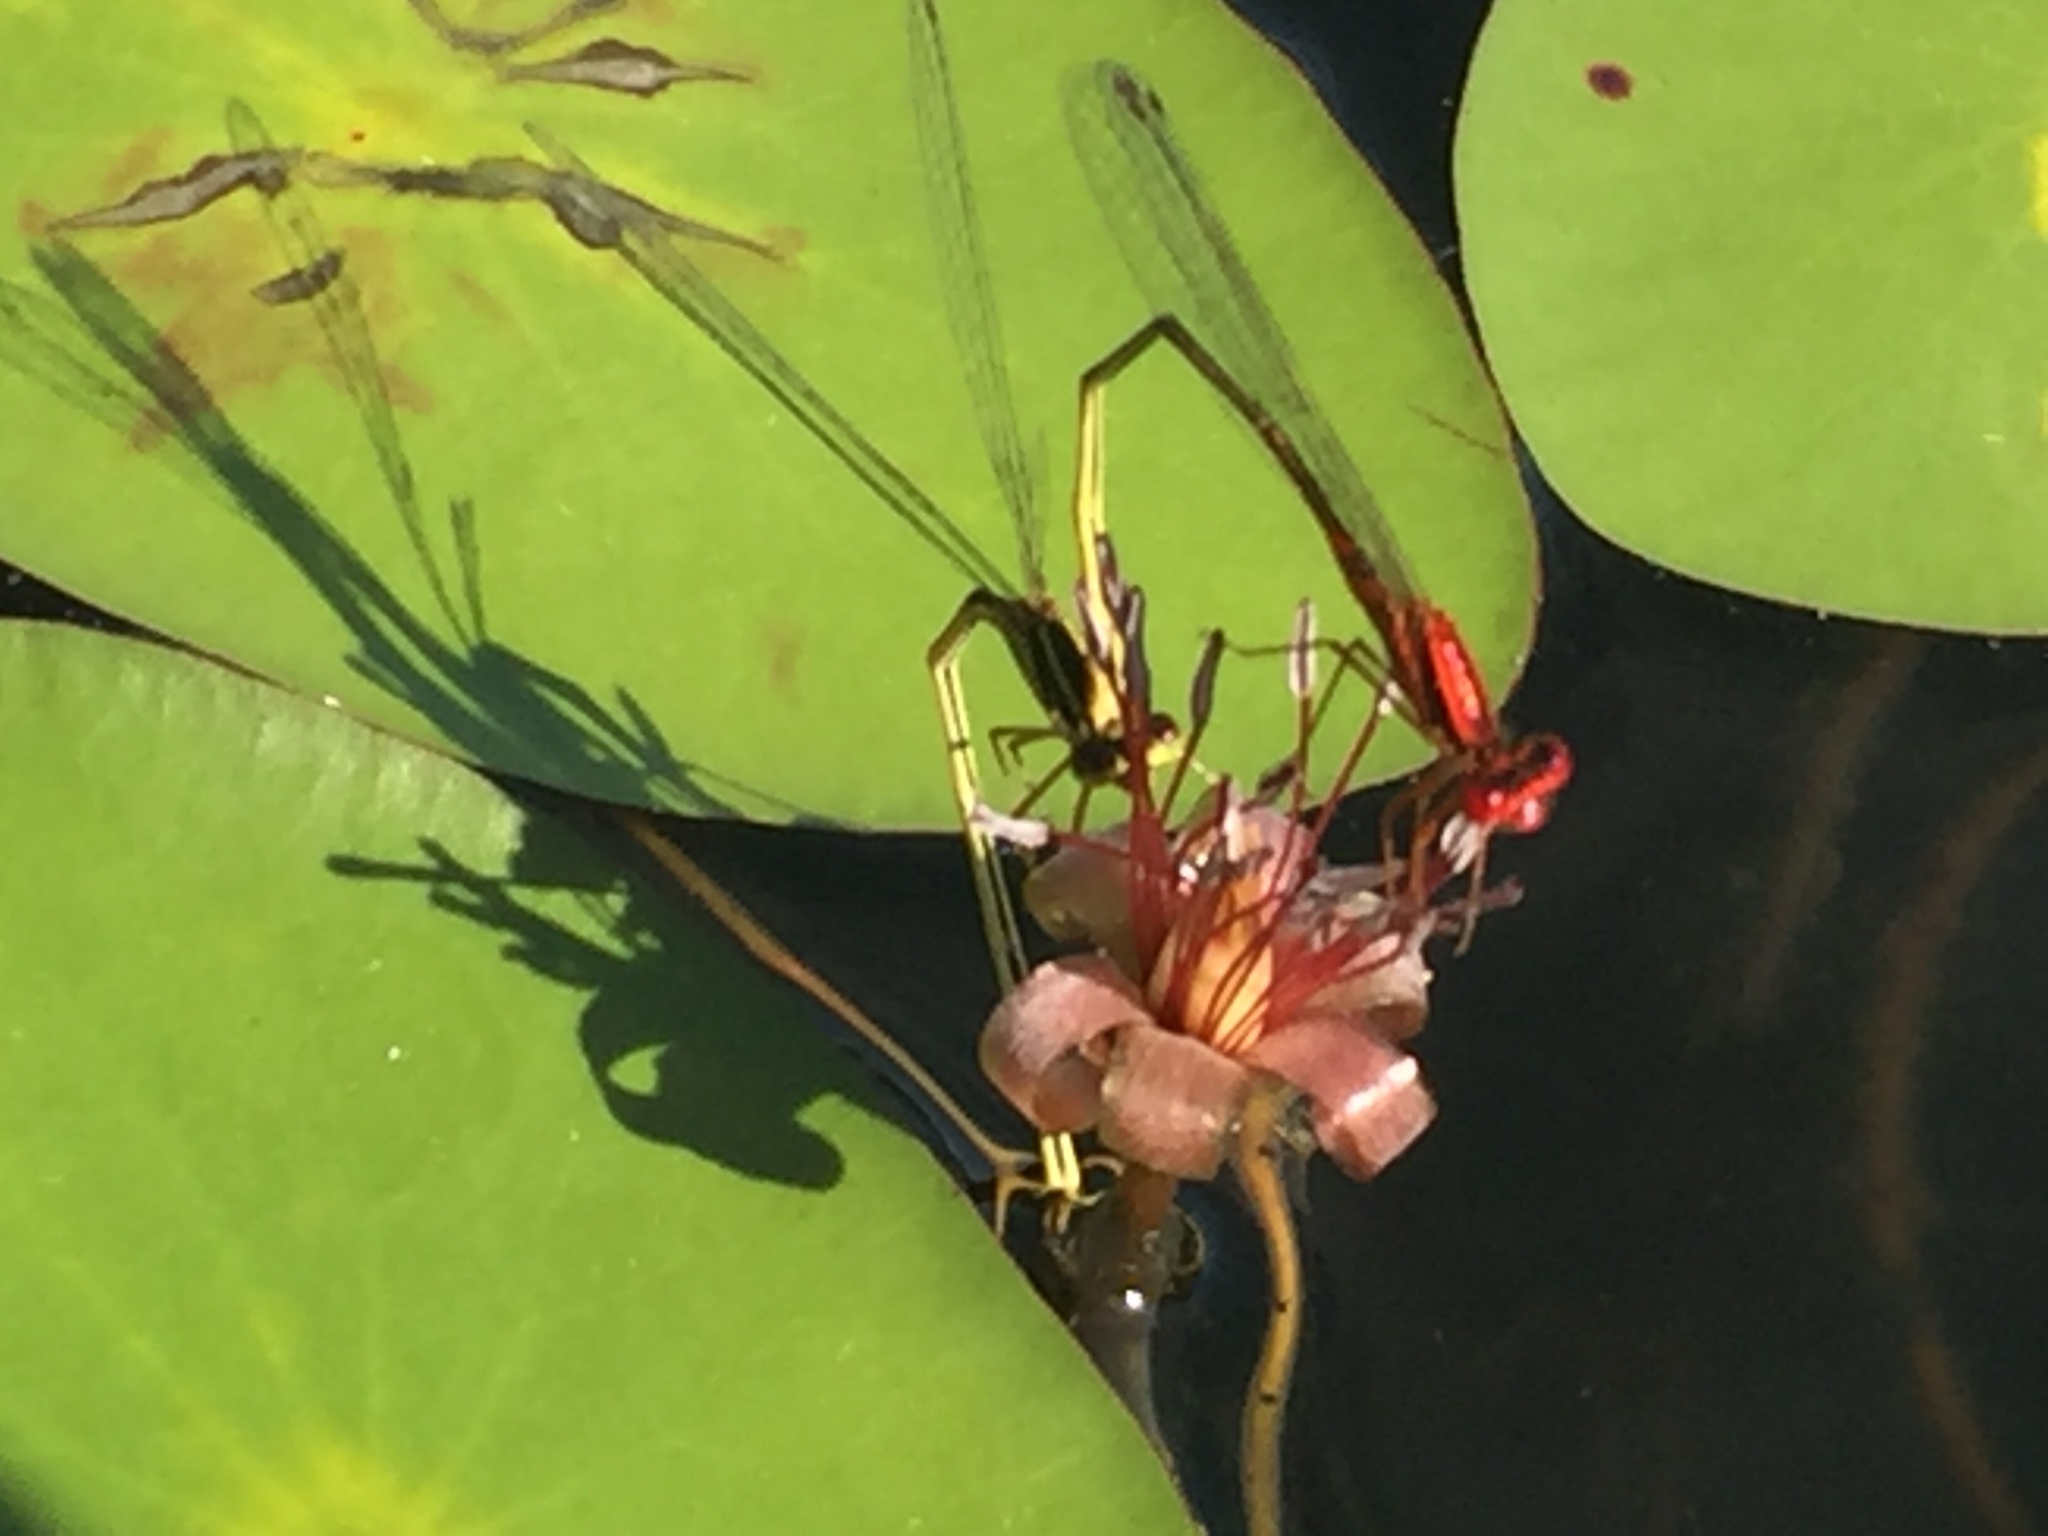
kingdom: Animalia
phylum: Arthropoda
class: Insecta
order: Odonata
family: Coenagrionidae
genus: Enallagma
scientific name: Enallagma pictum
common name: Scarlet bluet
